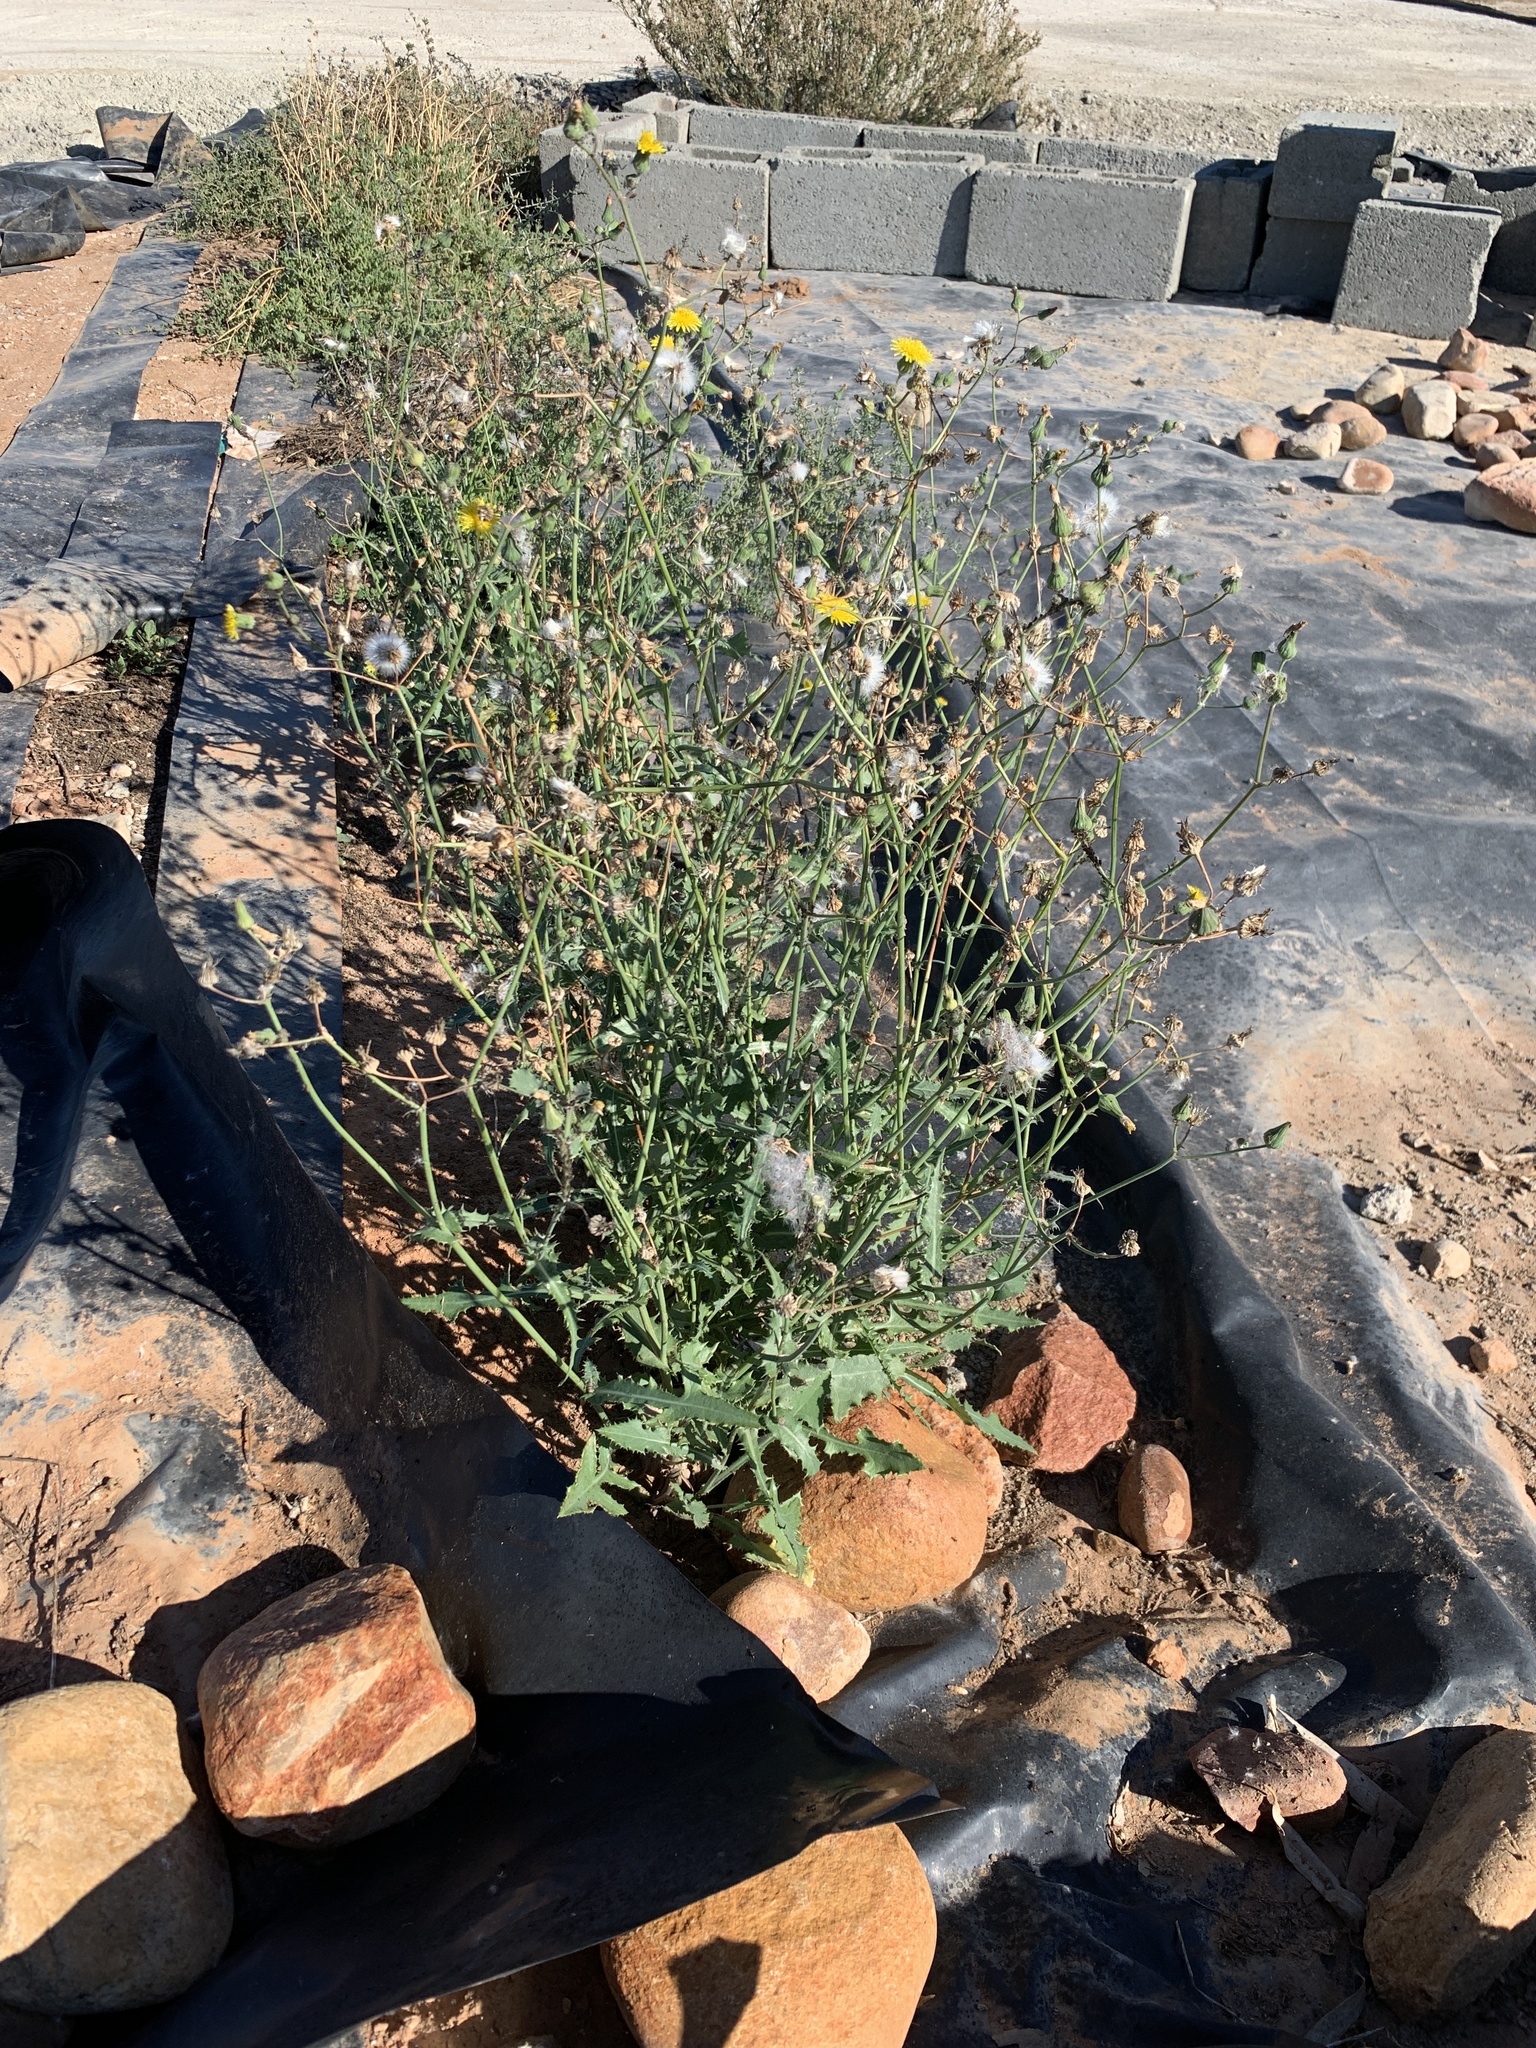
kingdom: Plantae
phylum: Tracheophyta
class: Magnoliopsida
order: Asterales
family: Asteraceae
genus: Sonchus
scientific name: Sonchus oleraceus
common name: Common sowthistle
